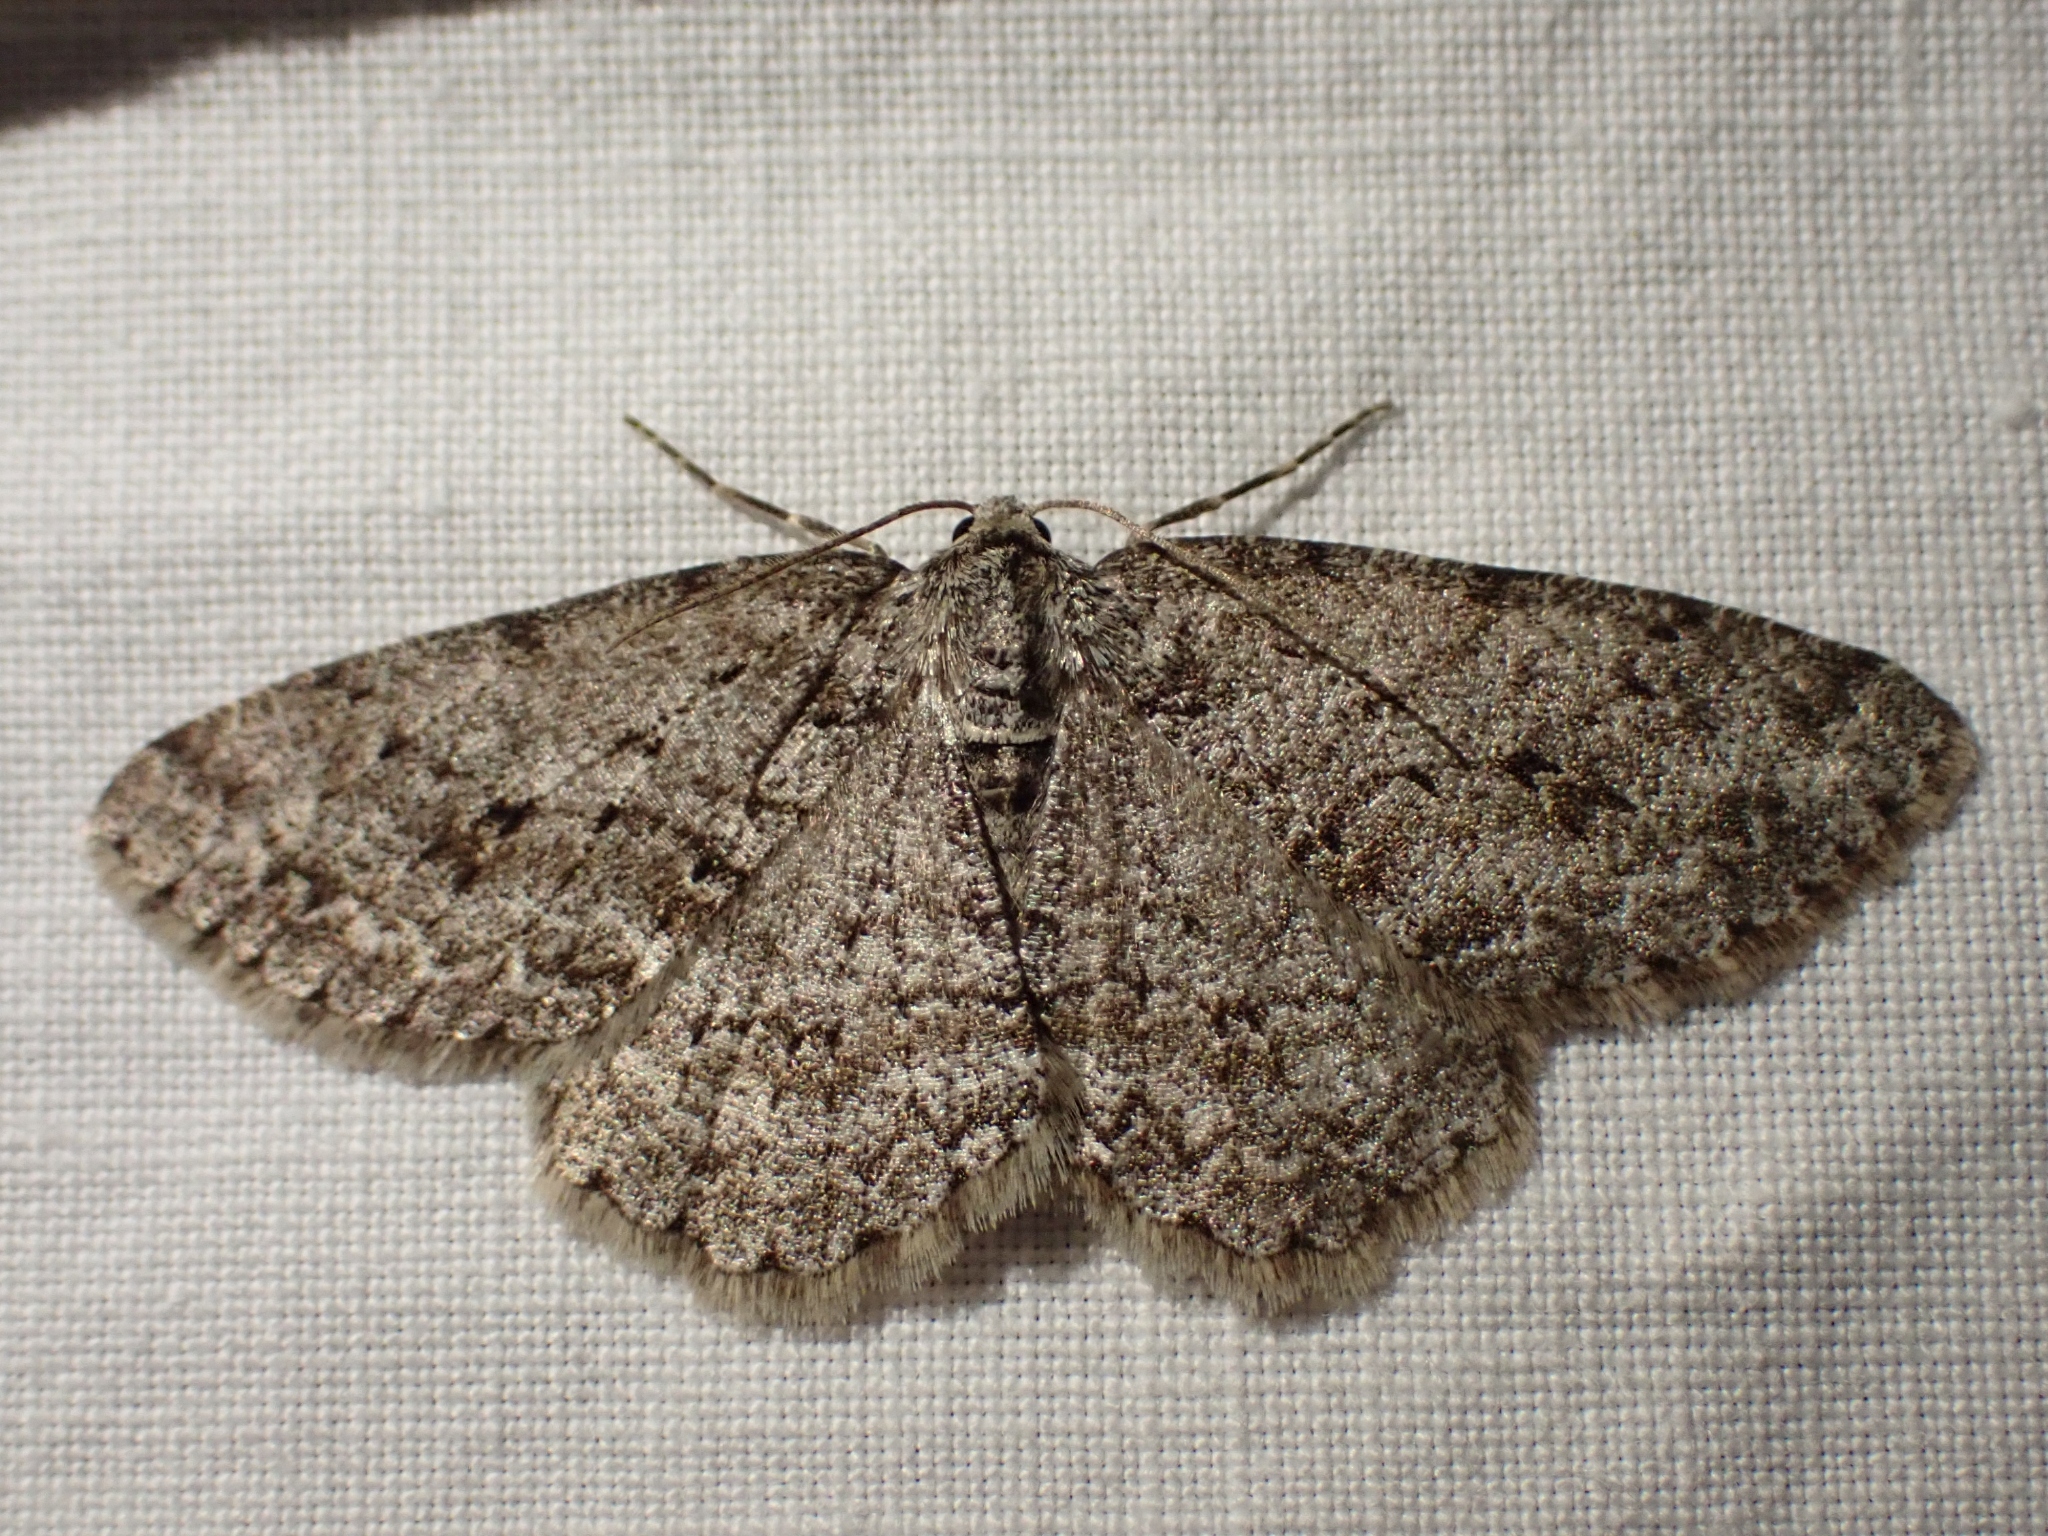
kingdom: Animalia
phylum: Arthropoda
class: Insecta
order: Lepidoptera
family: Geometridae
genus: Ectropis
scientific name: Ectropis crepuscularia
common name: Engrailed
